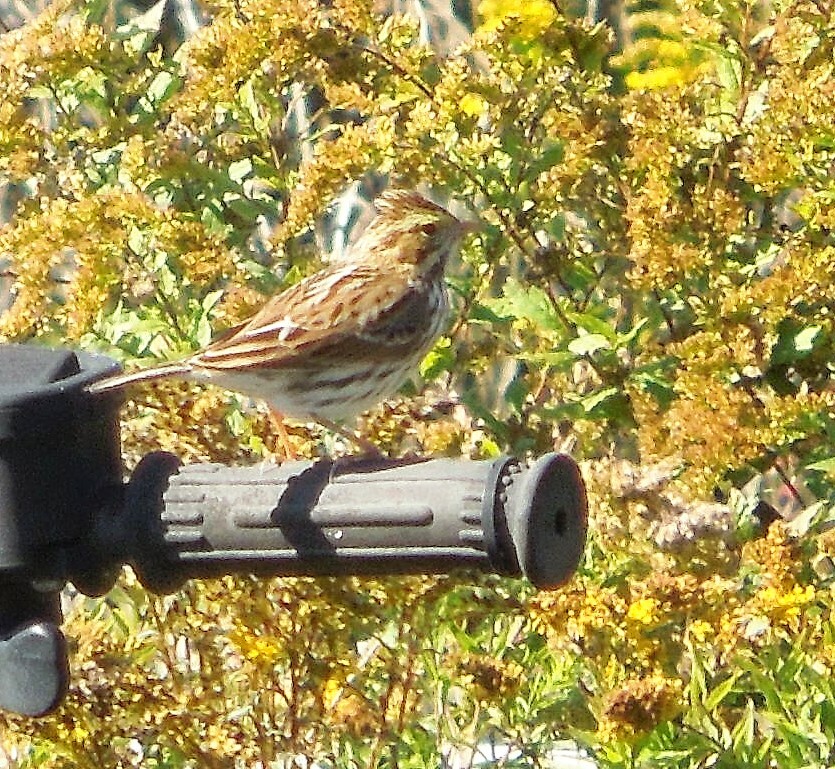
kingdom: Animalia
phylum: Chordata
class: Aves
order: Passeriformes
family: Passerellidae
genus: Passerculus
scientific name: Passerculus sandwichensis
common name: Savannah sparrow
